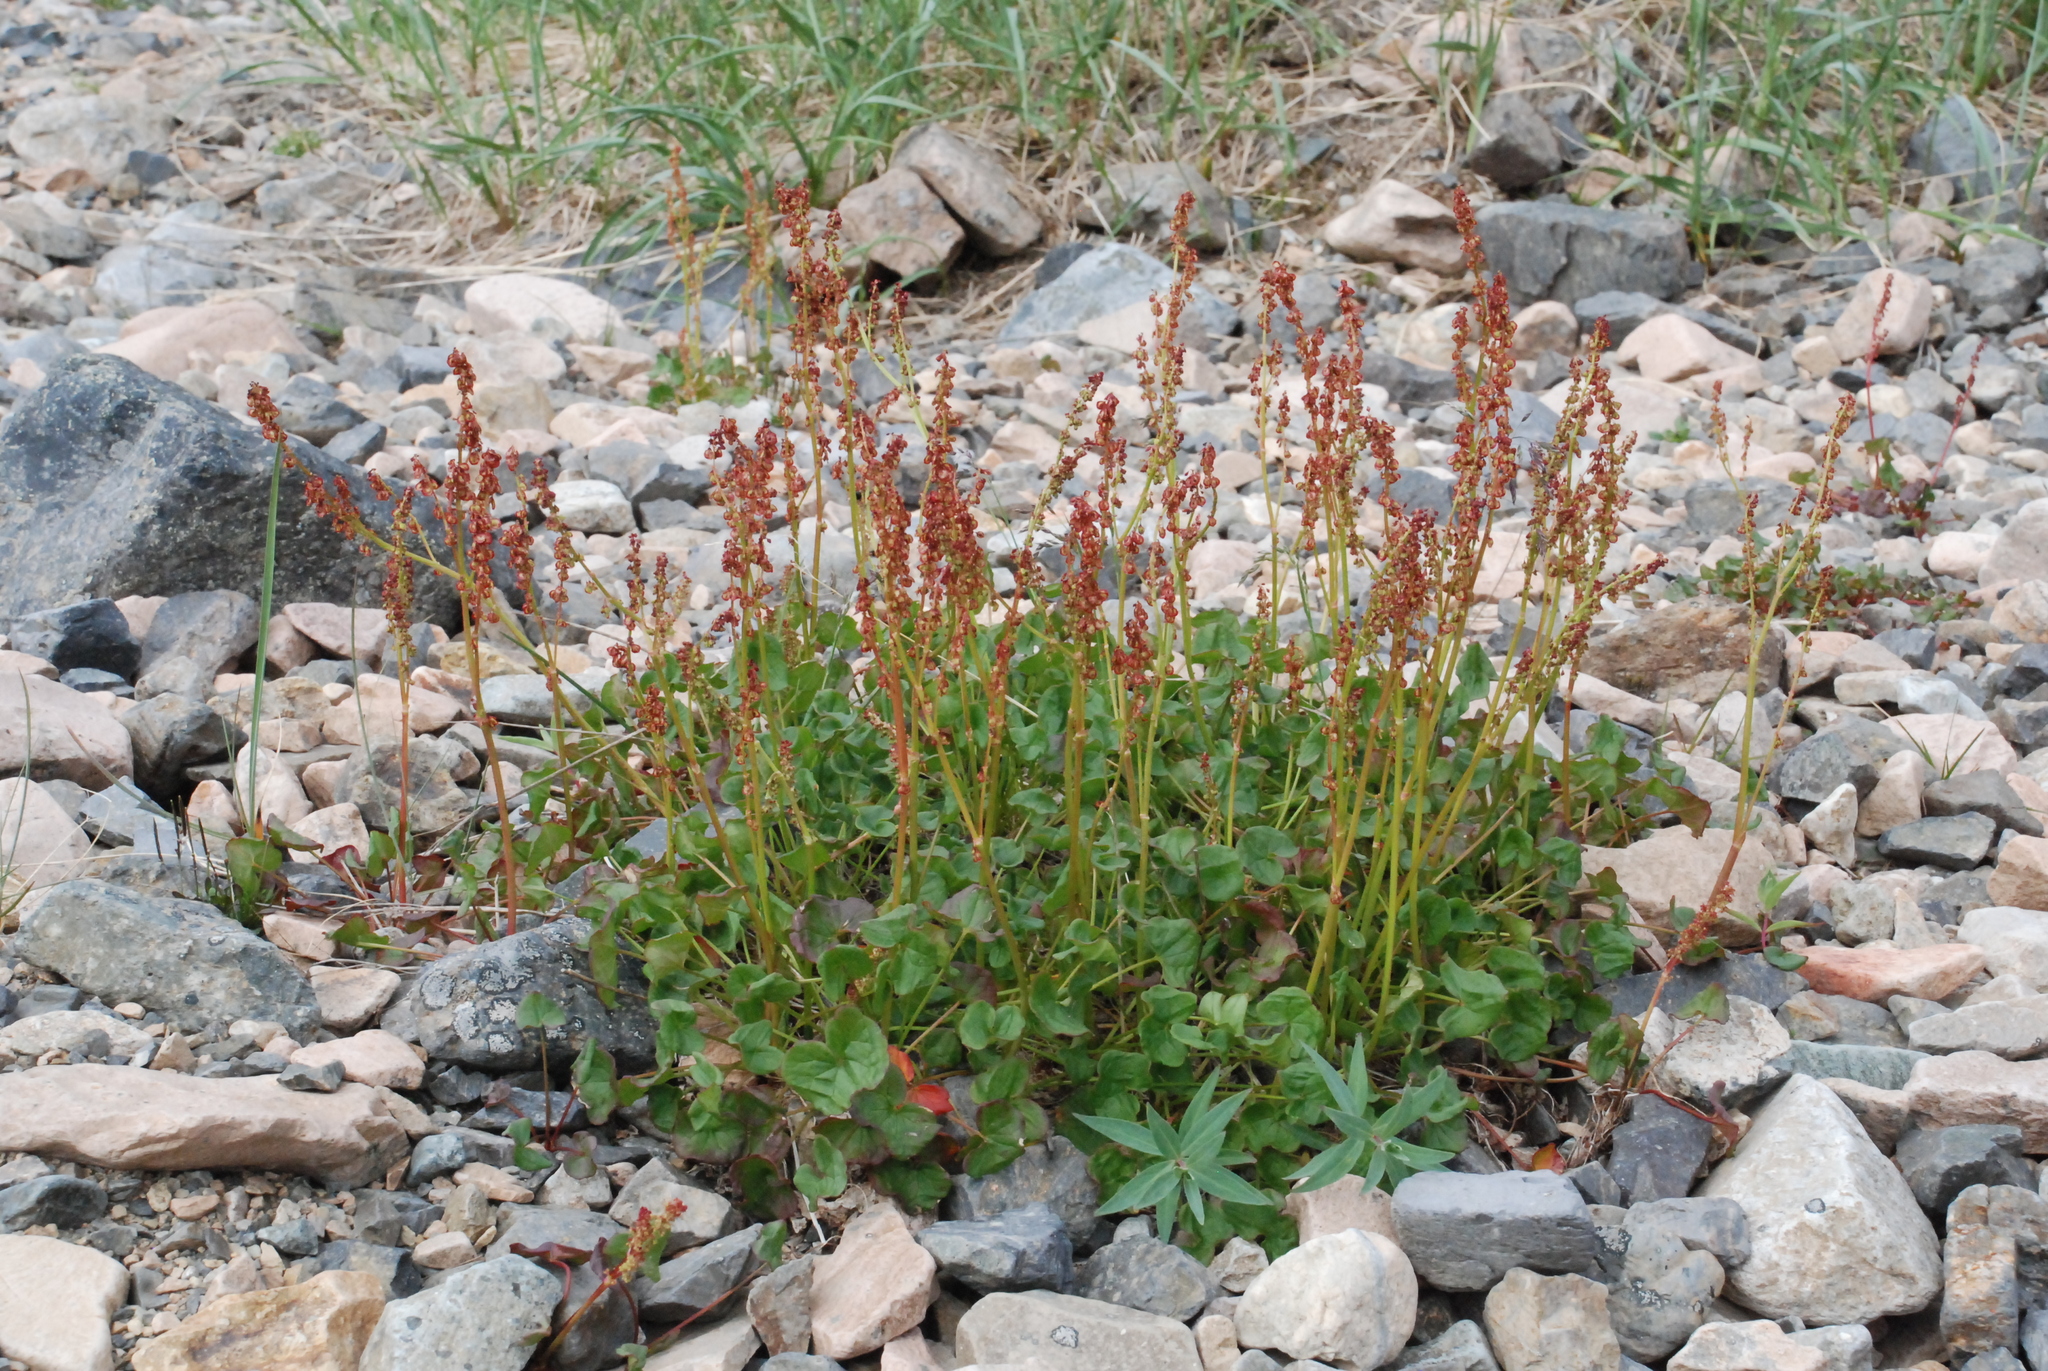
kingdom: Plantae
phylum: Tracheophyta
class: Magnoliopsida
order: Caryophyllales
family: Polygonaceae
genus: Oxyria
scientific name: Oxyria digyna
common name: Alpine mountain-sorrel
